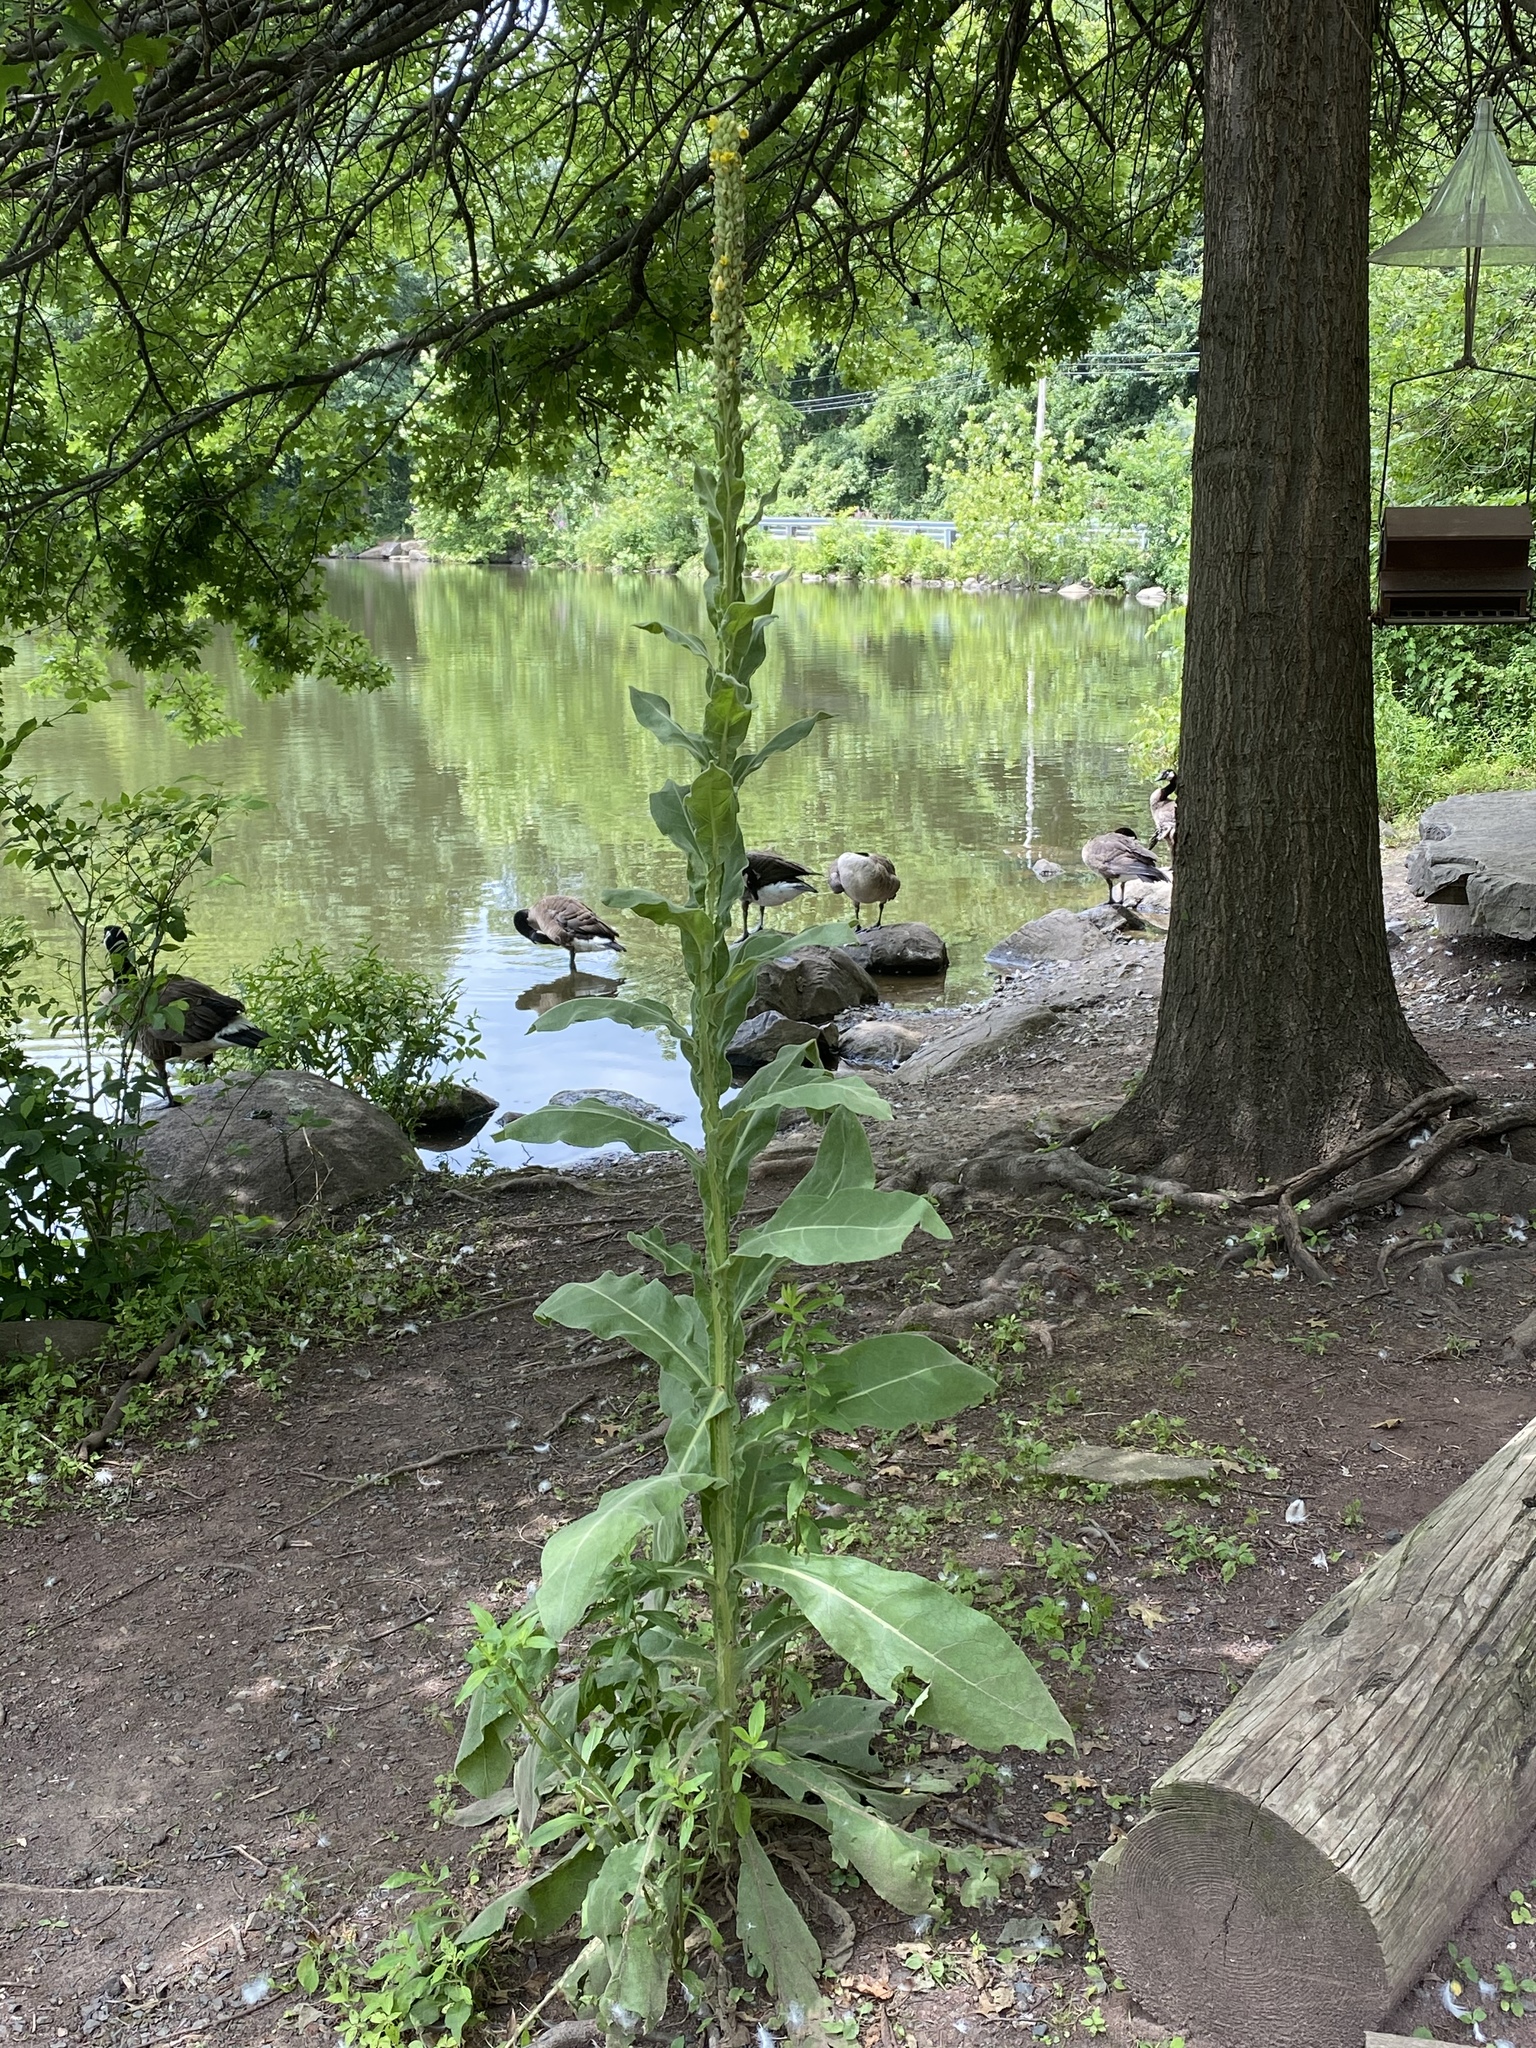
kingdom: Plantae
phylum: Tracheophyta
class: Magnoliopsida
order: Lamiales
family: Scrophulariaceae
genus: Verbascum
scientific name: Verbascum thapsus
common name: Common mullein
